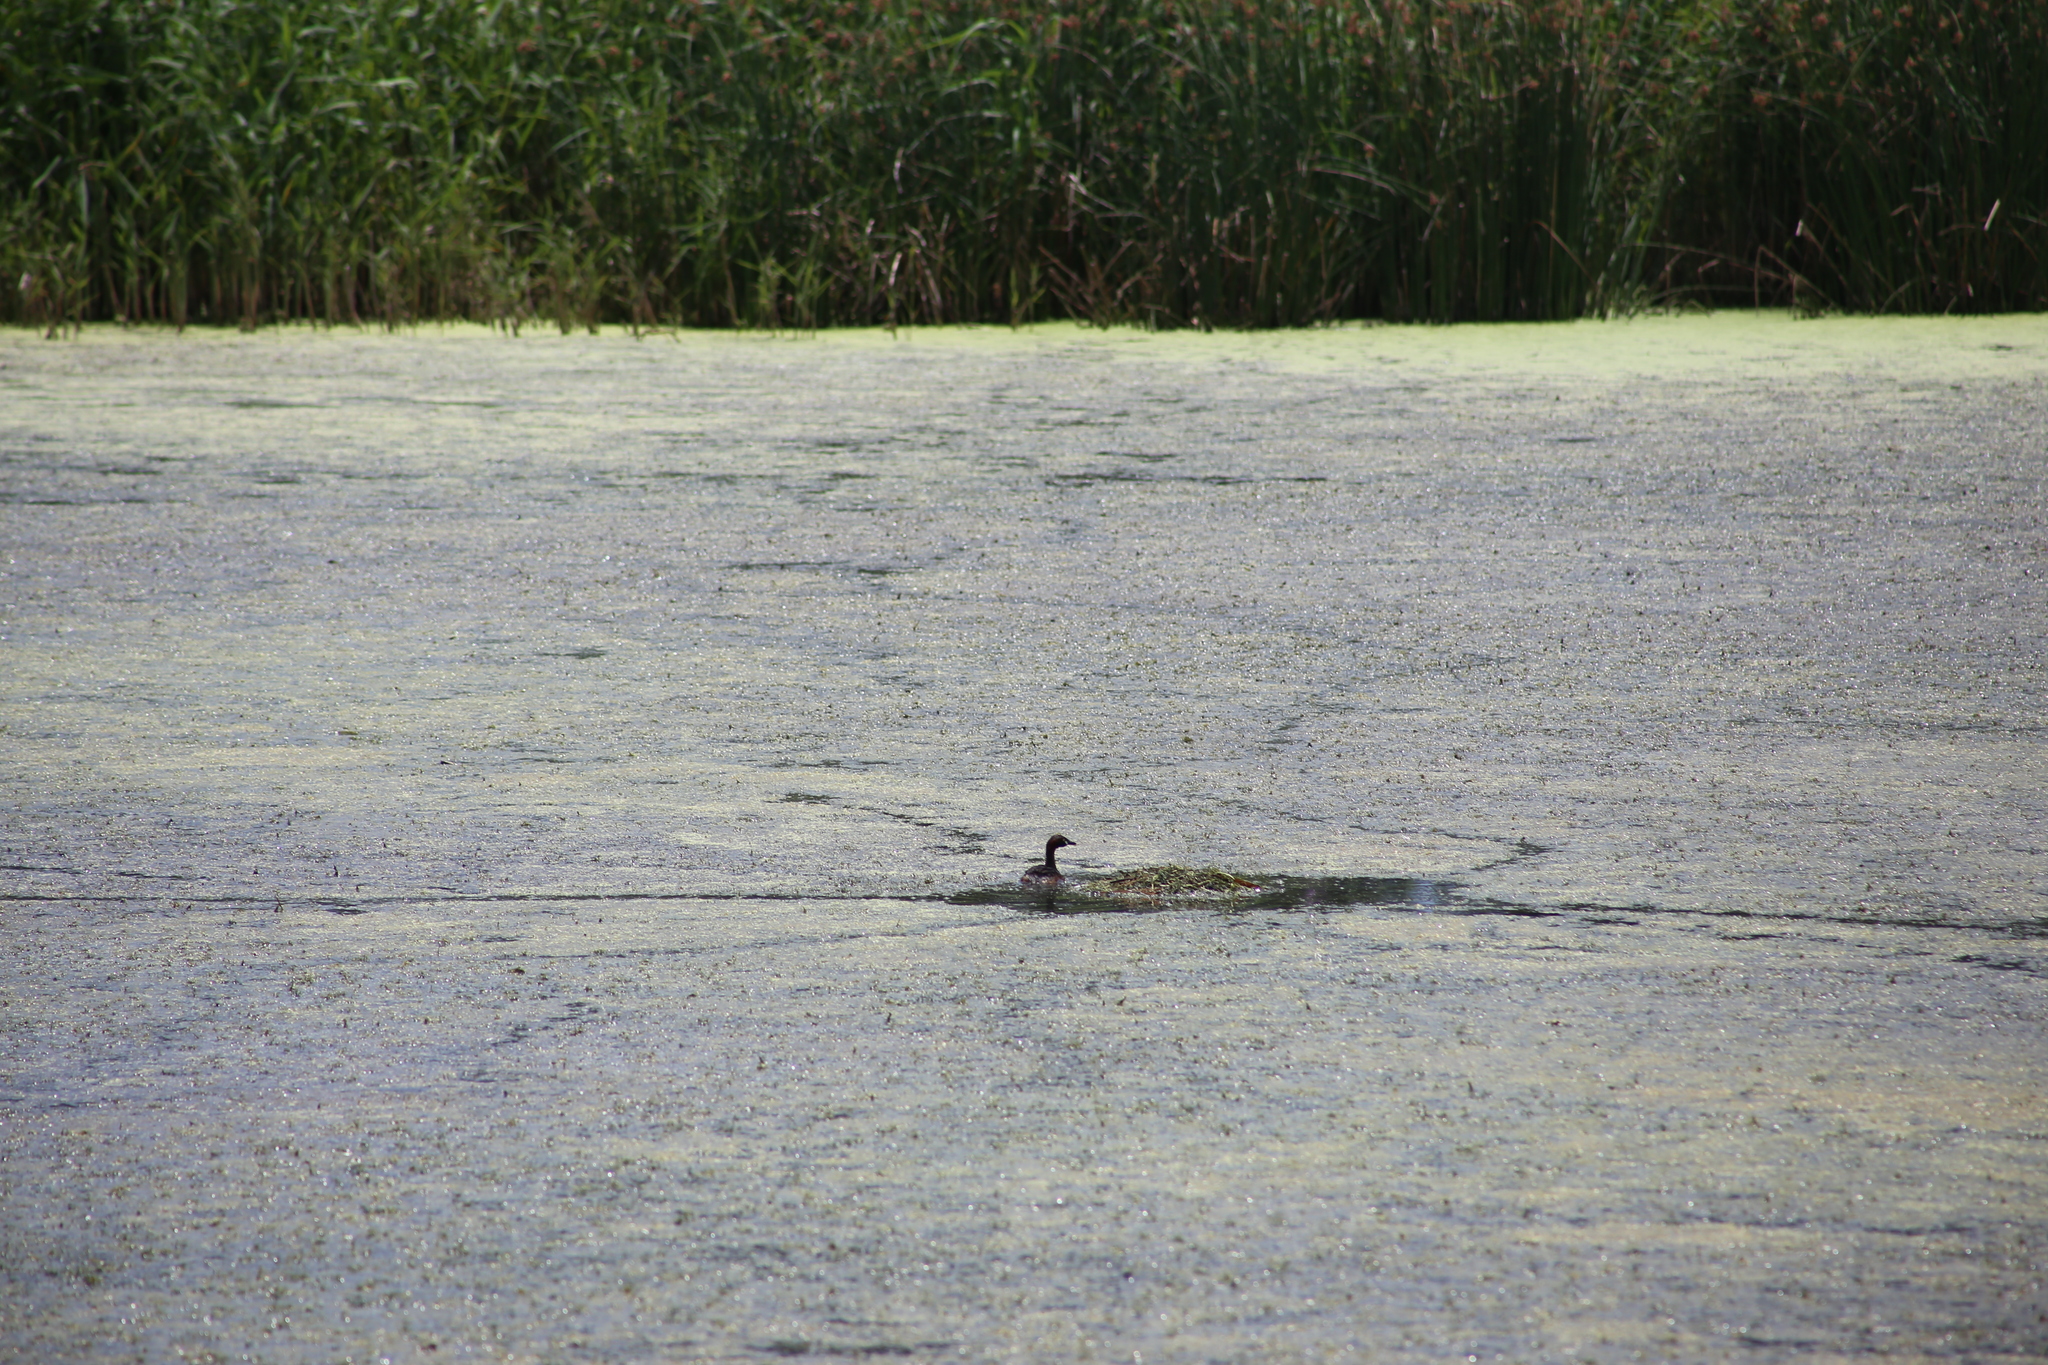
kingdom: Animalia
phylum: Chordata
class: Aves
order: Podicipediformes
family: Podicipedidae
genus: Tachybaptus
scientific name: Tachybaptus novaehollandiae
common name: Australasian grebe
